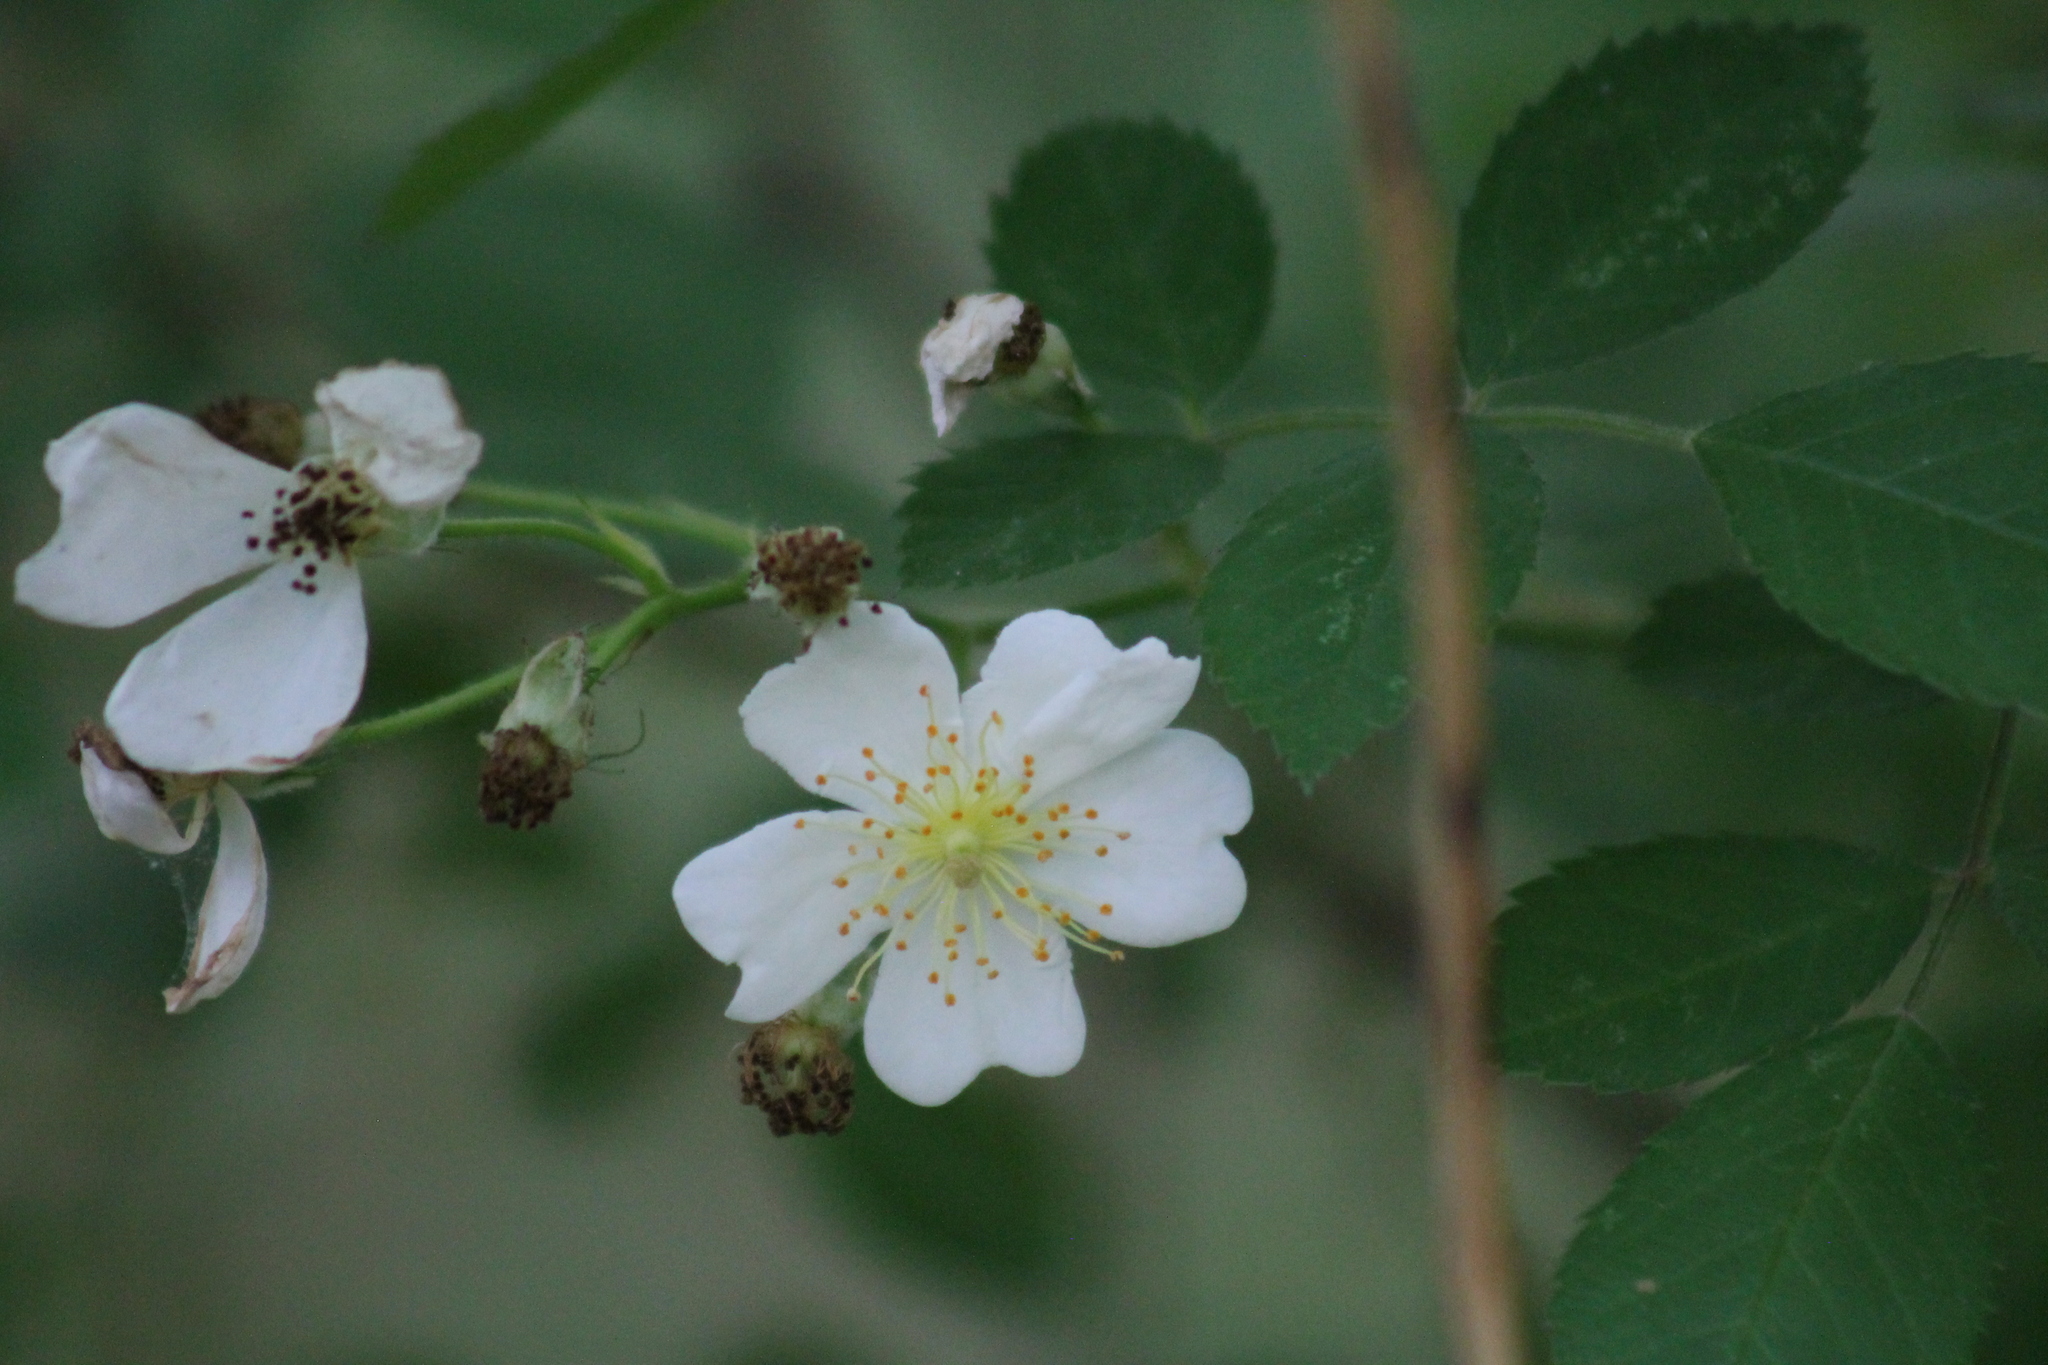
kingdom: Plantae
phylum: Tracheophyta
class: Magnoliopsida
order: Rosales
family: Rosaceae
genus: Rosa
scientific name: Rosa multiflora
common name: Multiflora rose
